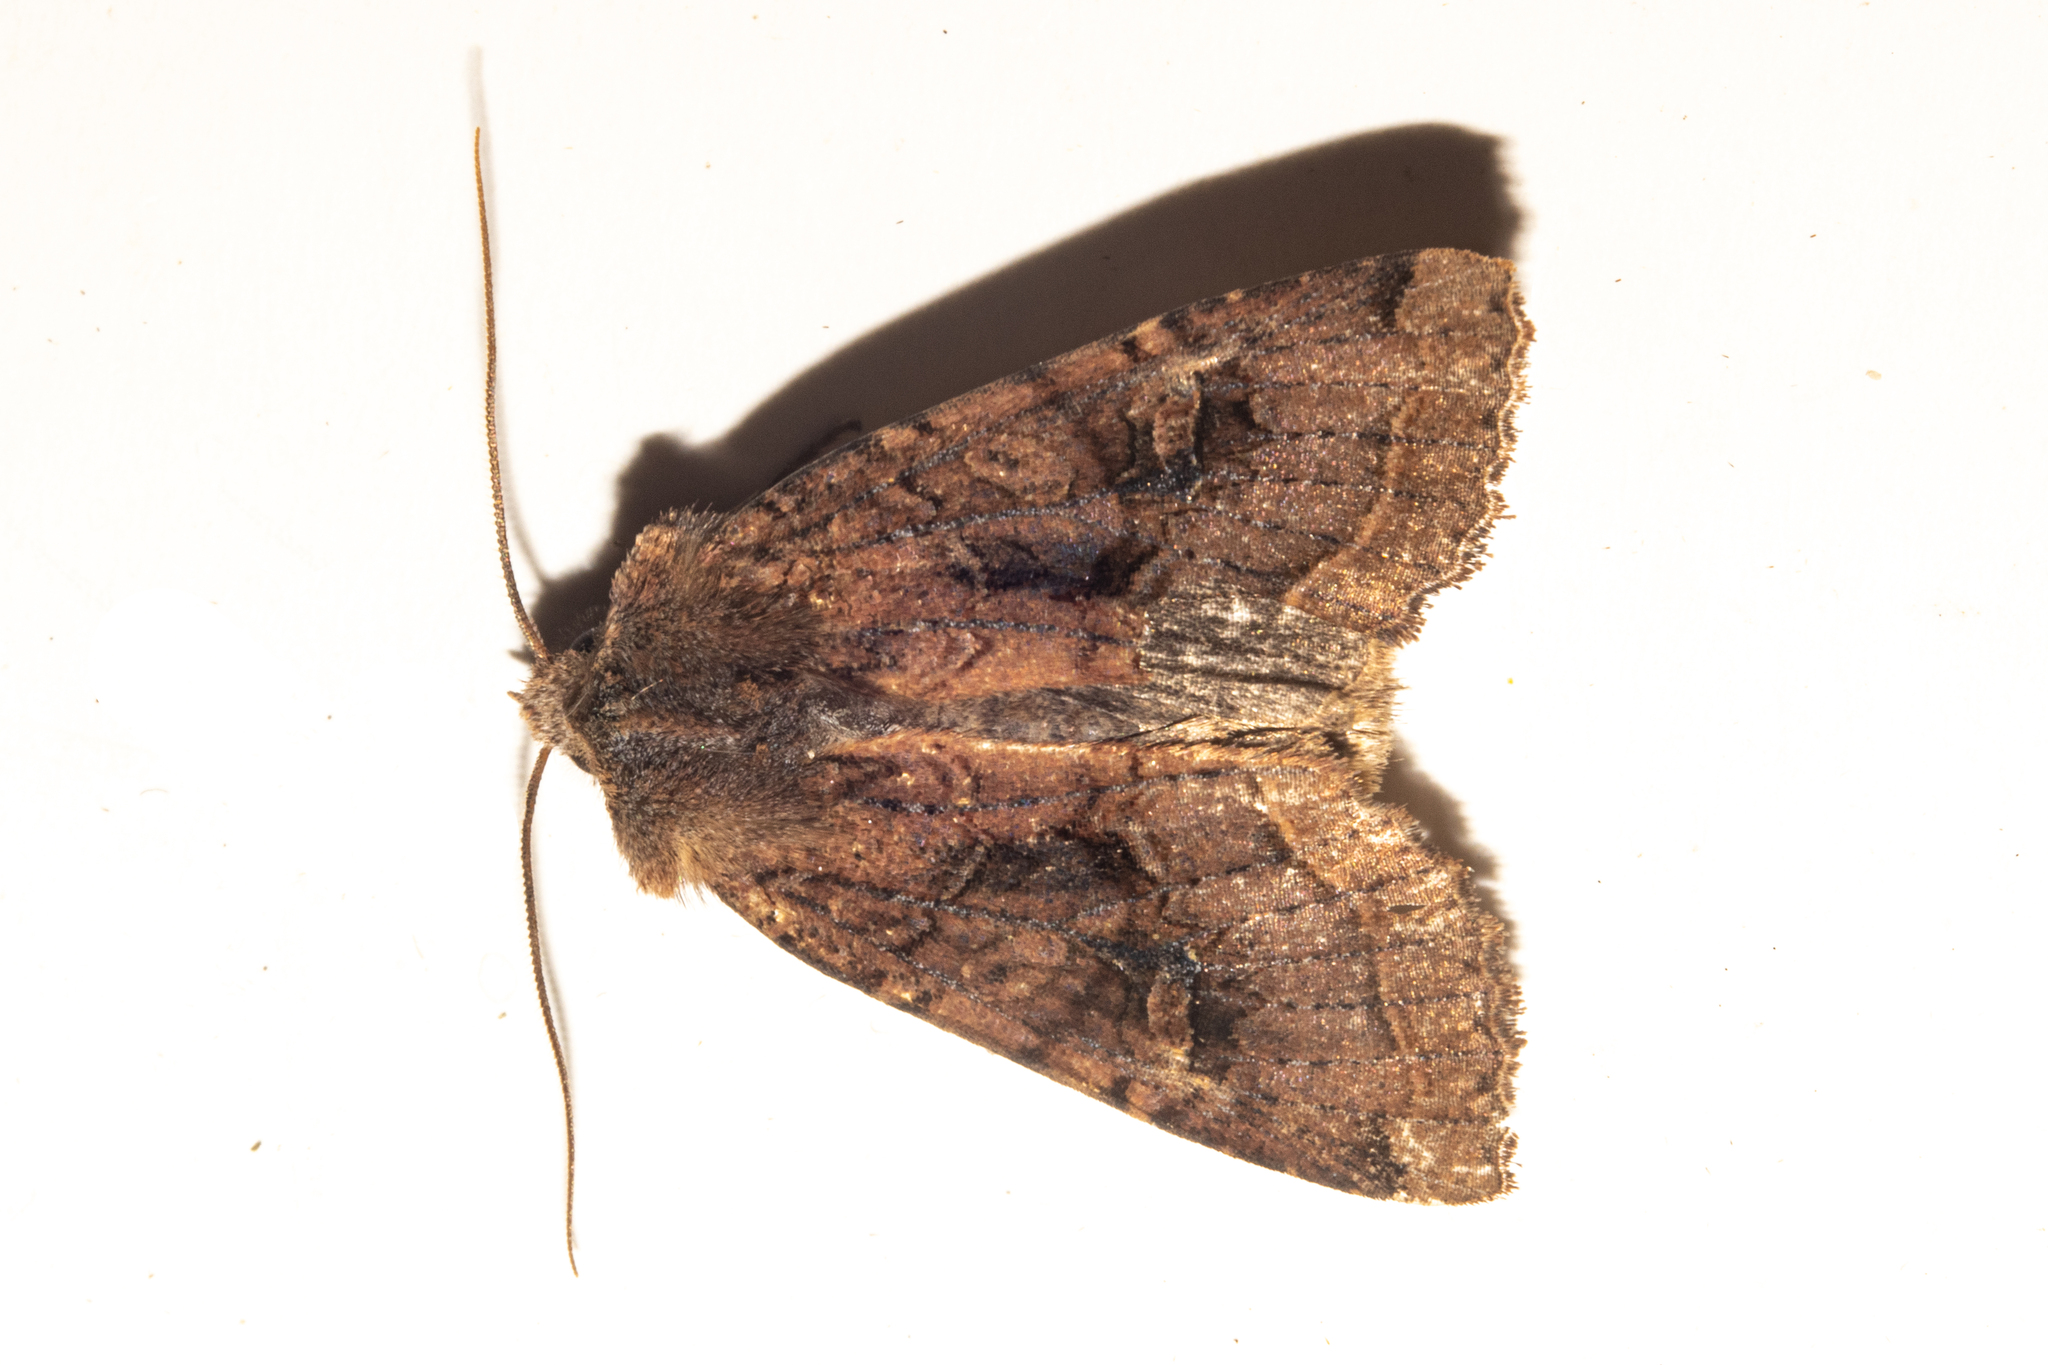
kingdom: Animalia
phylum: Arthropoda
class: Insecta
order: Lepidoptera
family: Noctuidae
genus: Meterana
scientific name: Meterana tartaraea
